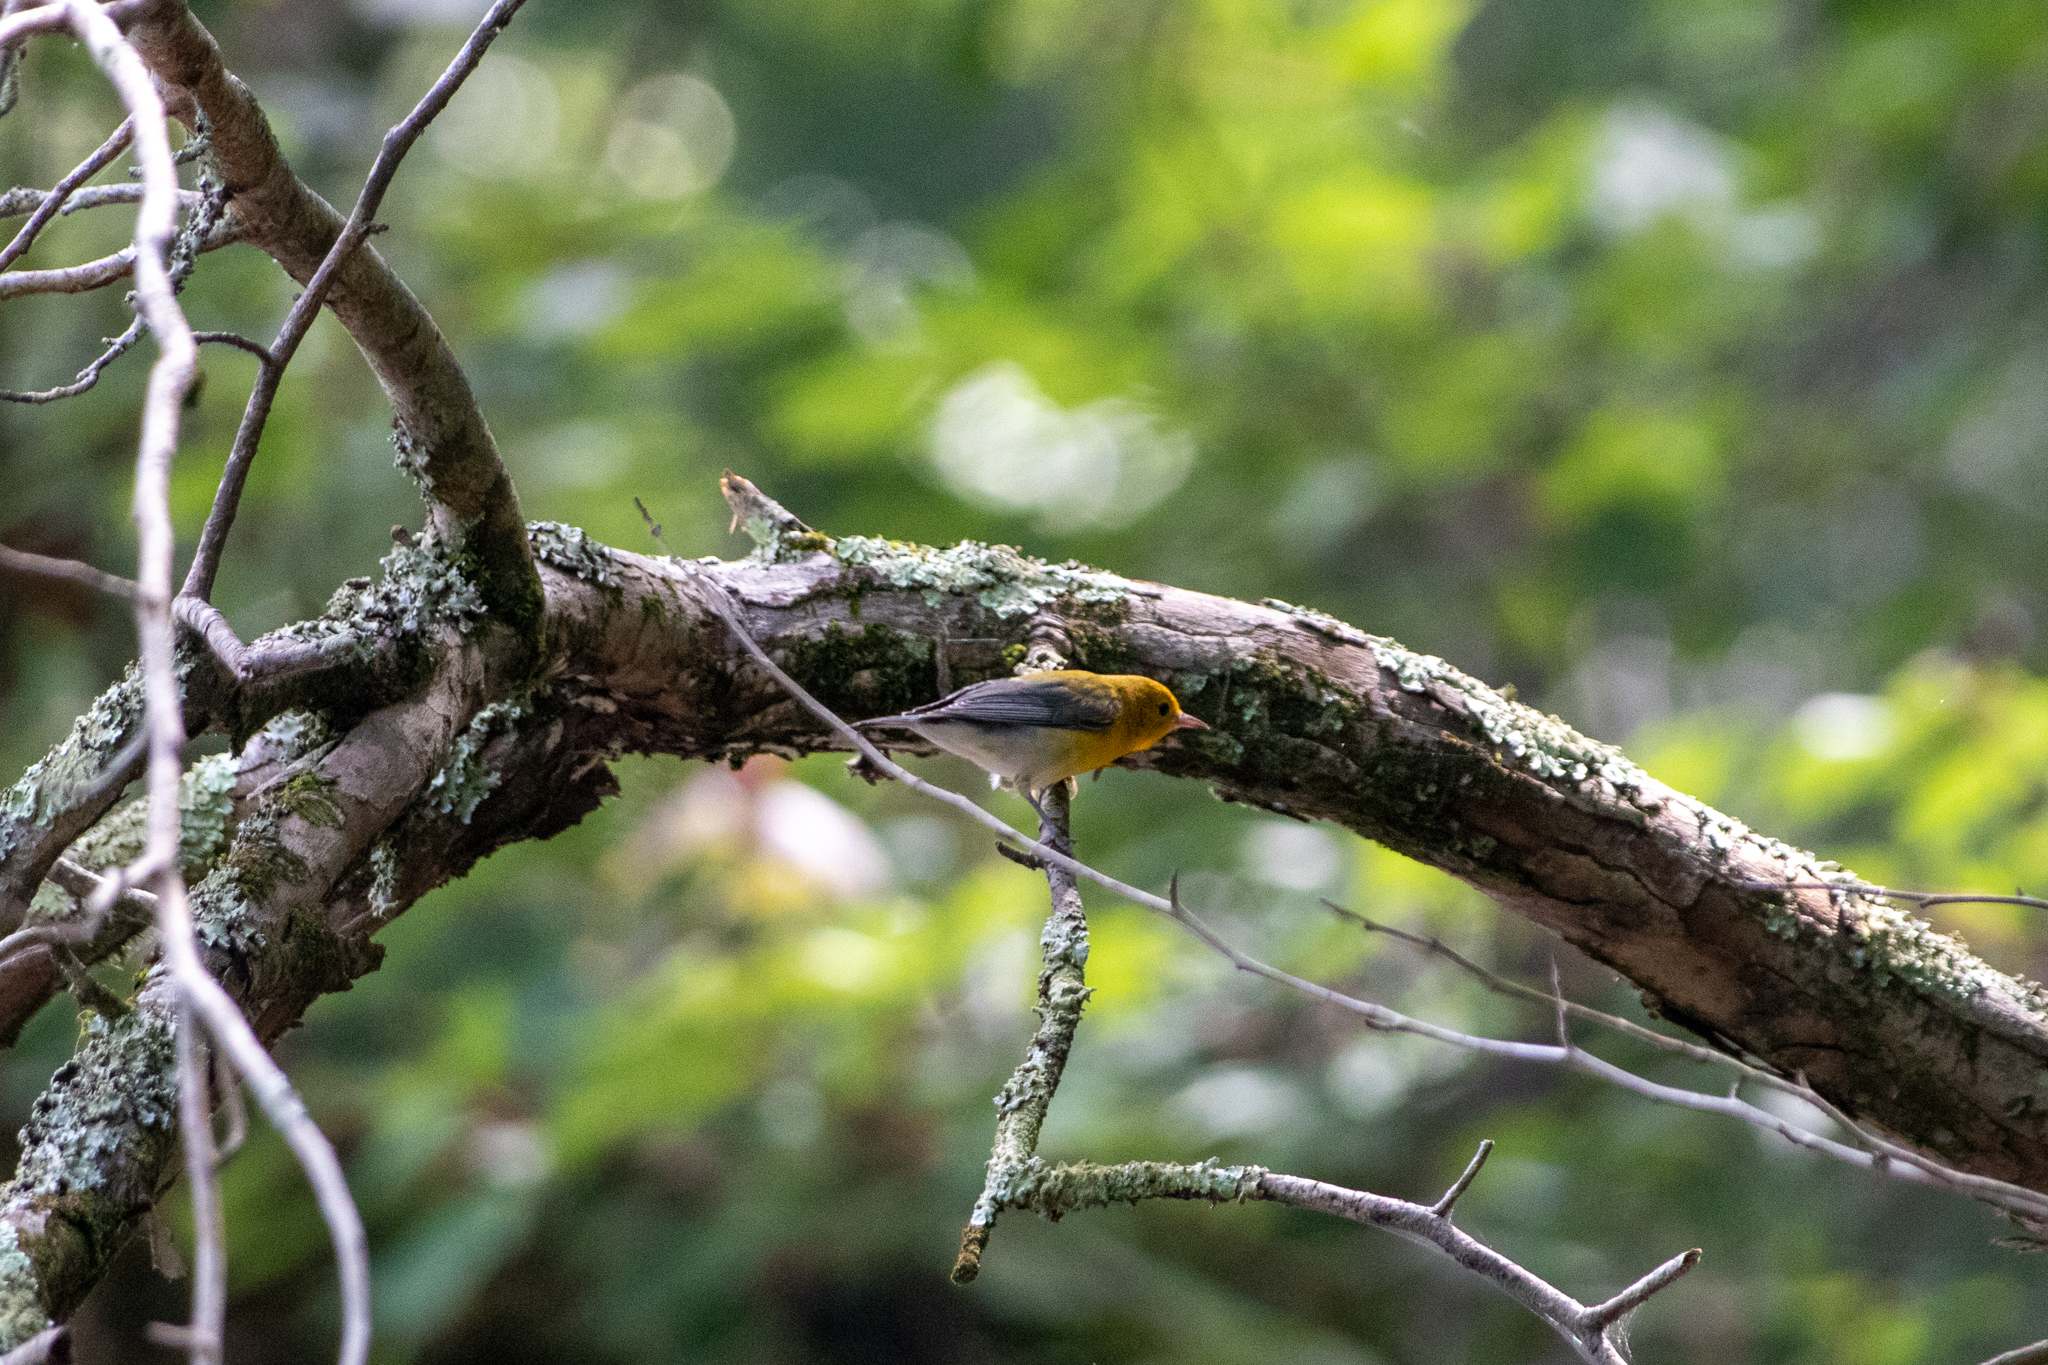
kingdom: Animalia
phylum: Chordata
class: Aves
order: Passeriformes
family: Parulidae
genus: Protonotaria
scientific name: Protonotaria citrea
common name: Prothonotary warbler
